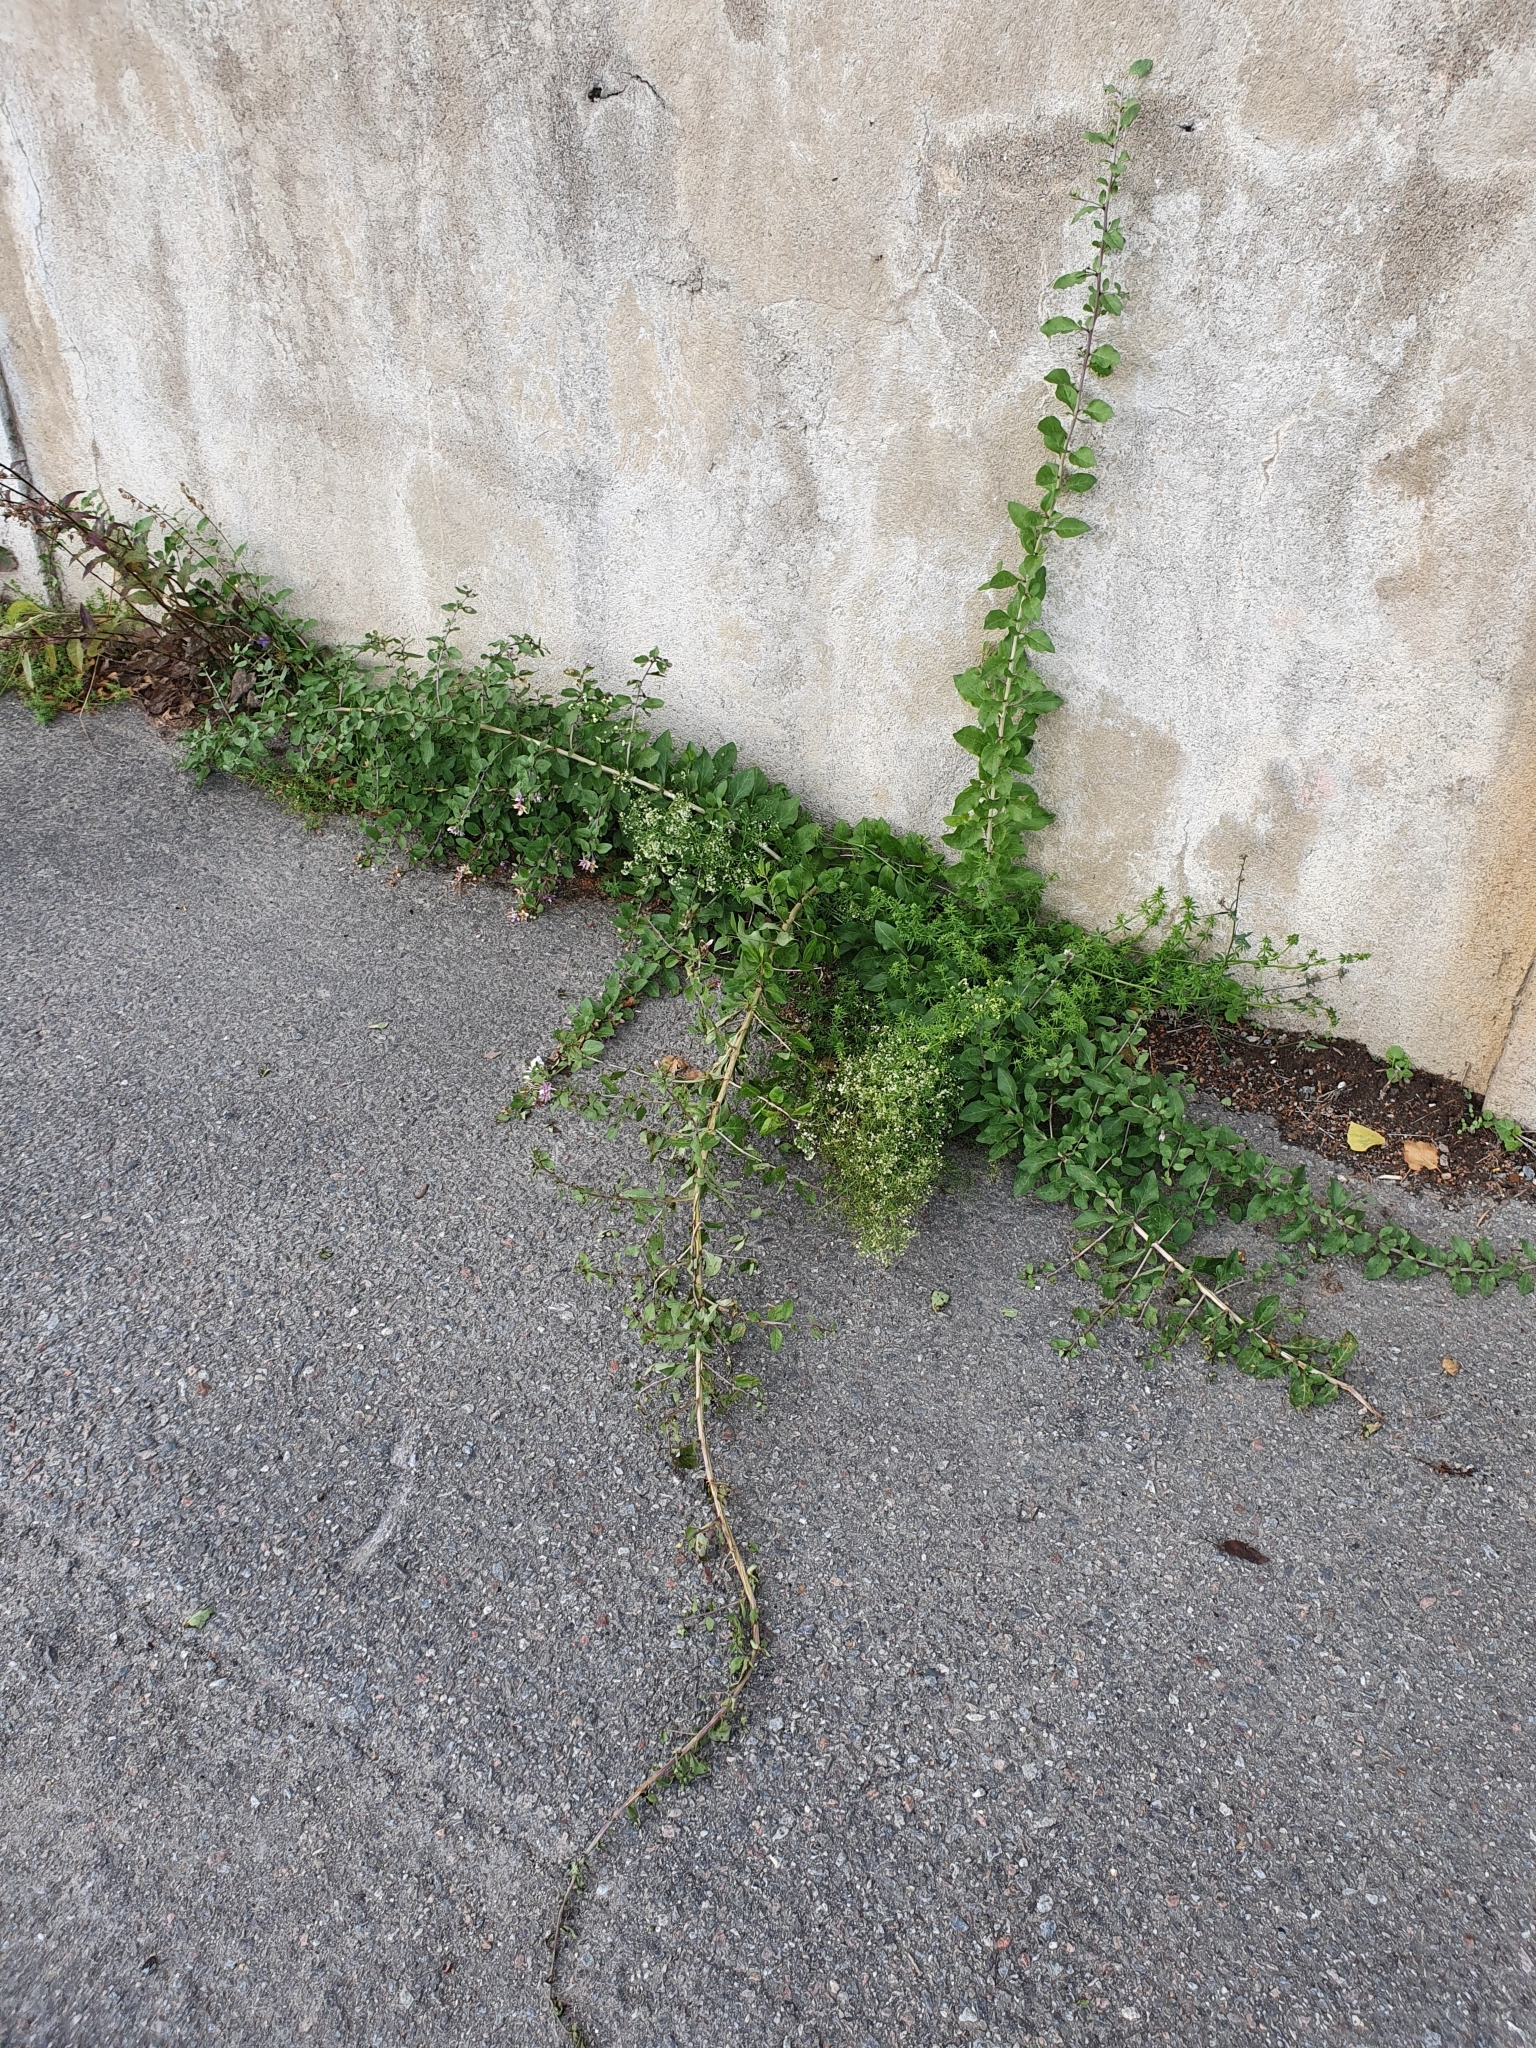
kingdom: Plantae
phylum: Tracheophyta
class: Magnoliopsida
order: Solanales
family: Solanaceae
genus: Lycium
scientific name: Lycium barbarum
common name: Duke of argyll's teaplant
